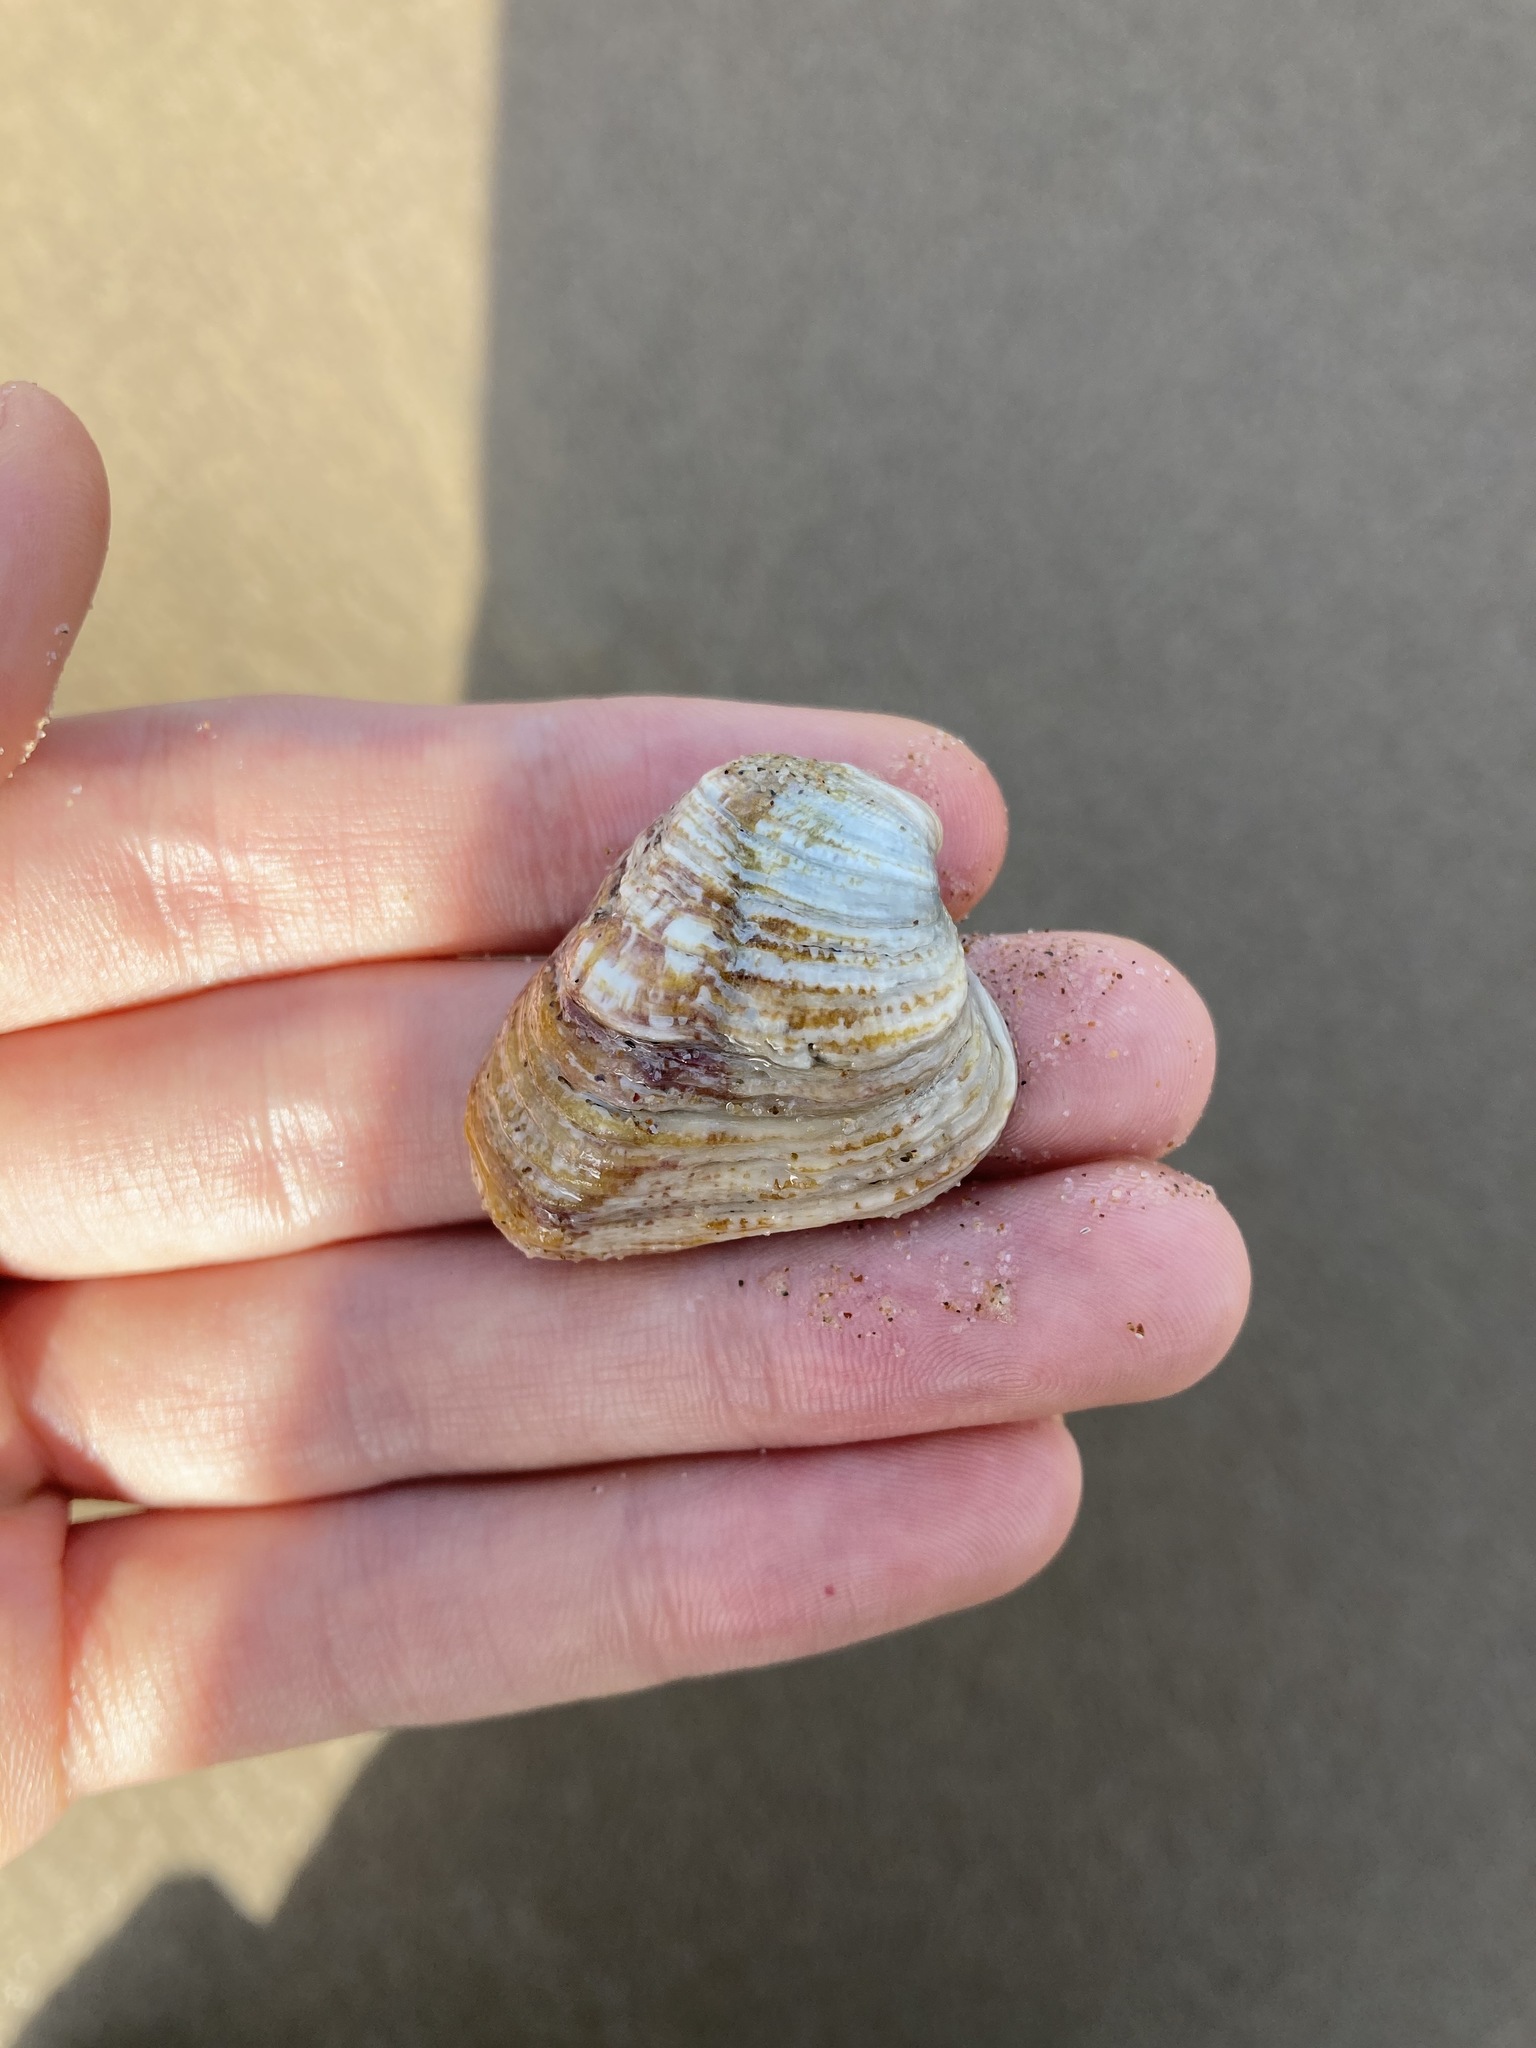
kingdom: Animalia
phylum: Mollusca
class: Bivalvia
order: Venerida
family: Veneridae
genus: Irus
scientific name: Irus crenatus
